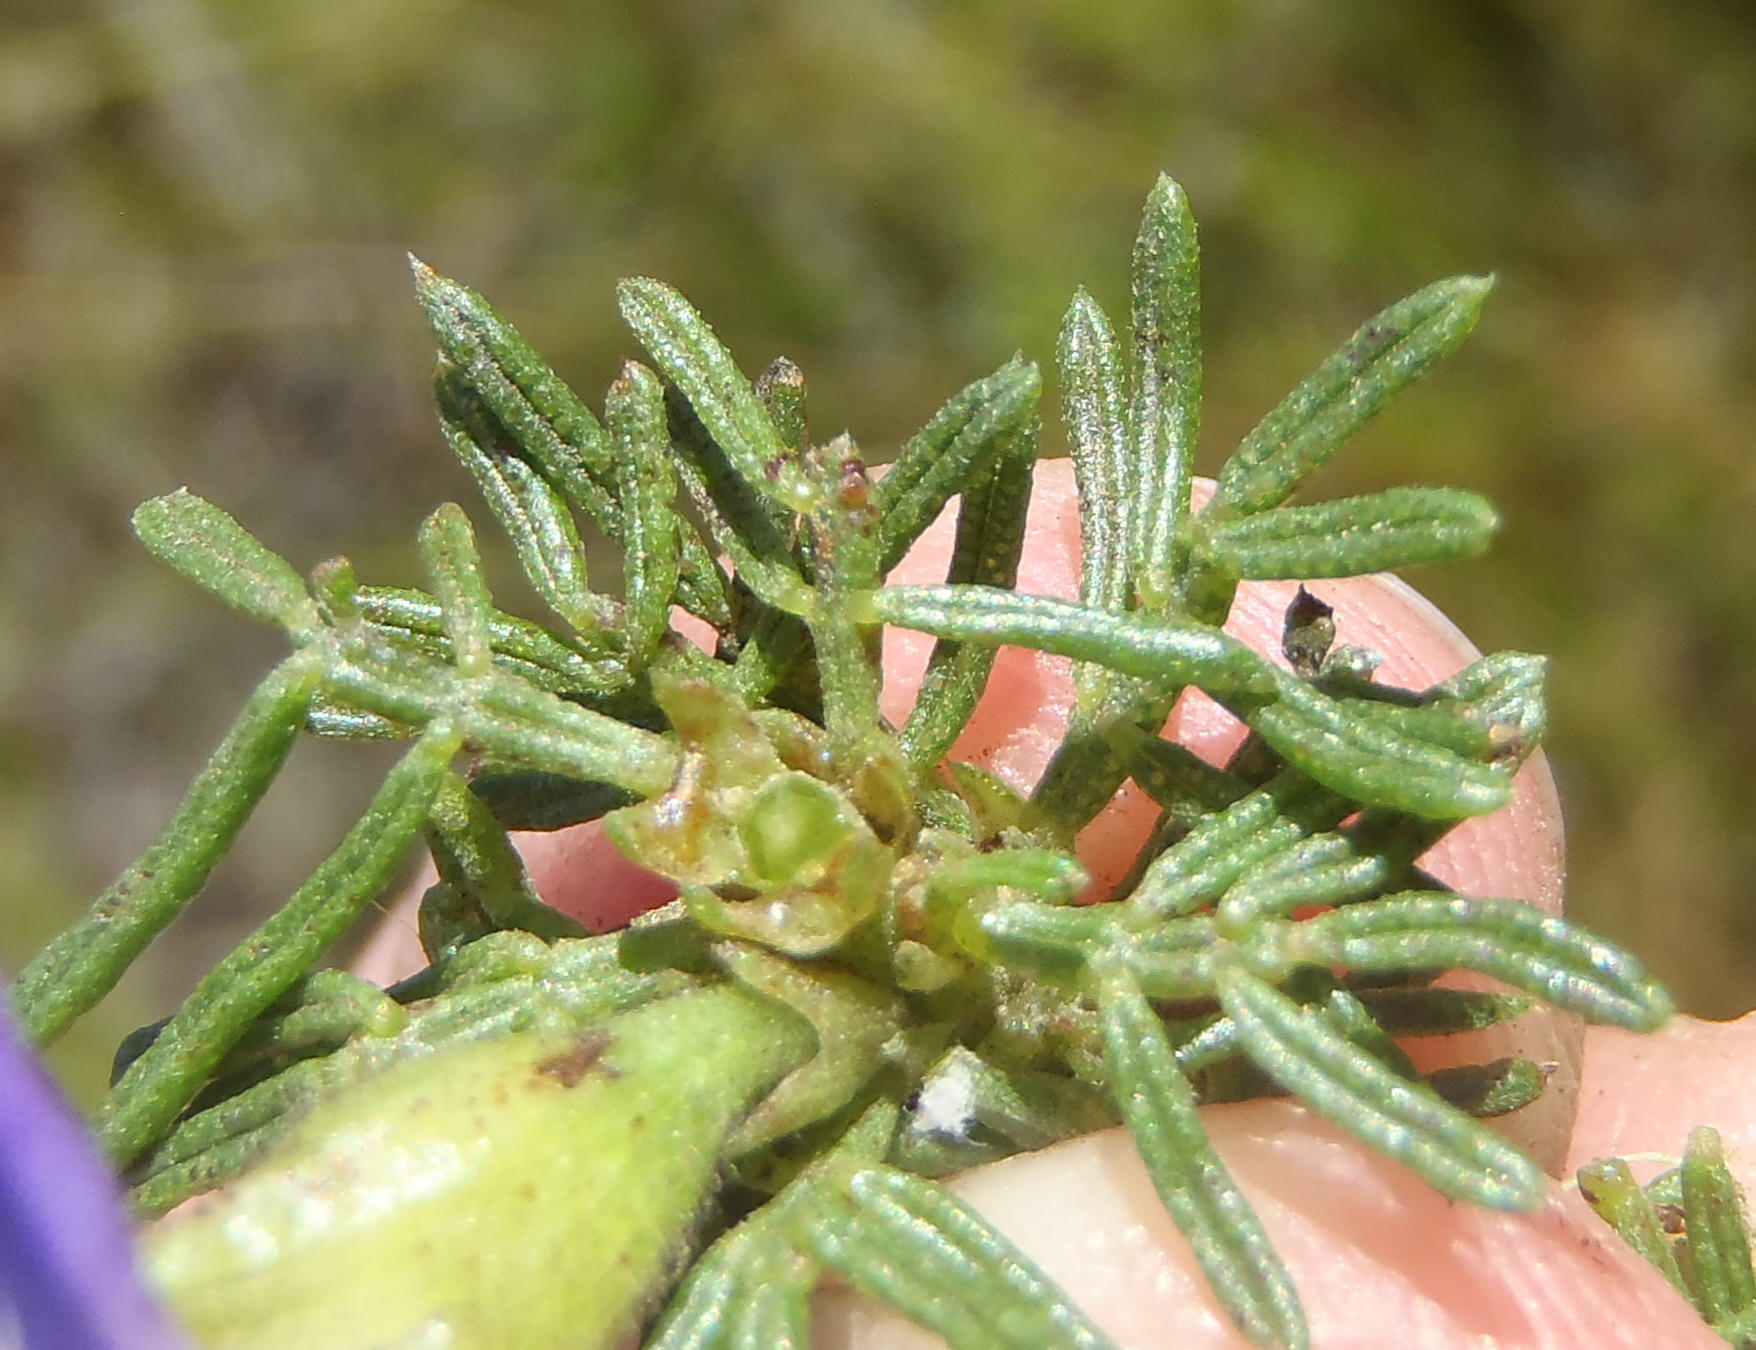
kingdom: Plantae
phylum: Tracheophyta
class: Magnoliopsida
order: Fabales
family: Fabaceae
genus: Psoralea
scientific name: Psoralea speciosa
